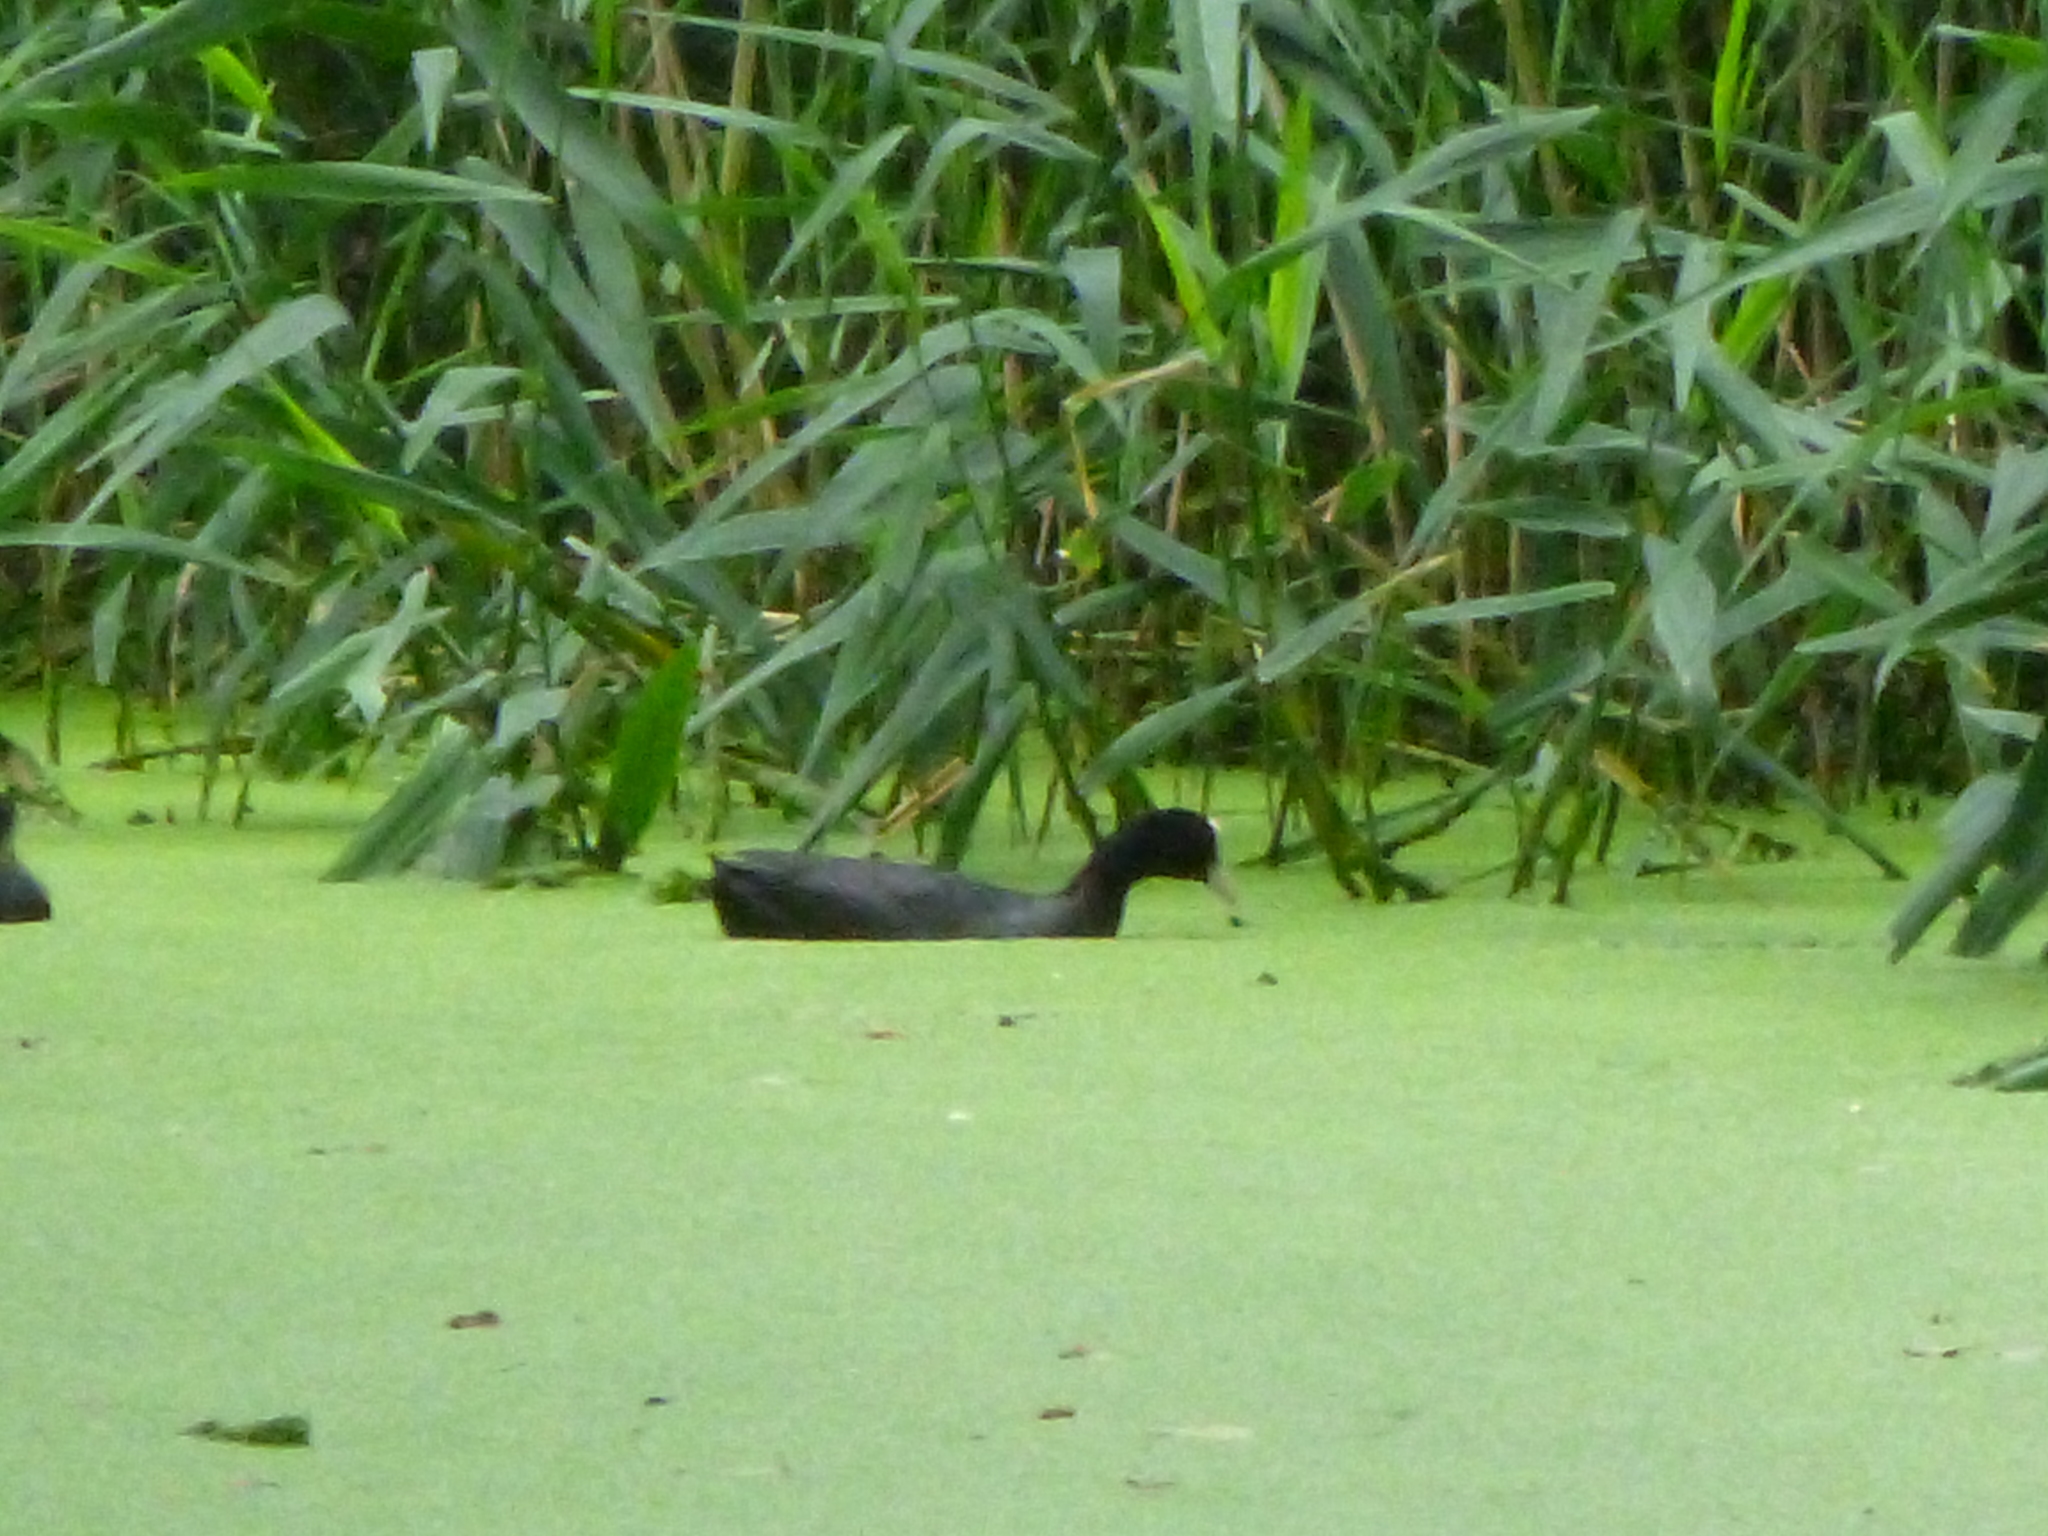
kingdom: Animalia
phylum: Chordata
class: Aves
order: Gruiformes
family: Rallidae
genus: Fulica
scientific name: Fulica atra
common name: Eurasian coot
